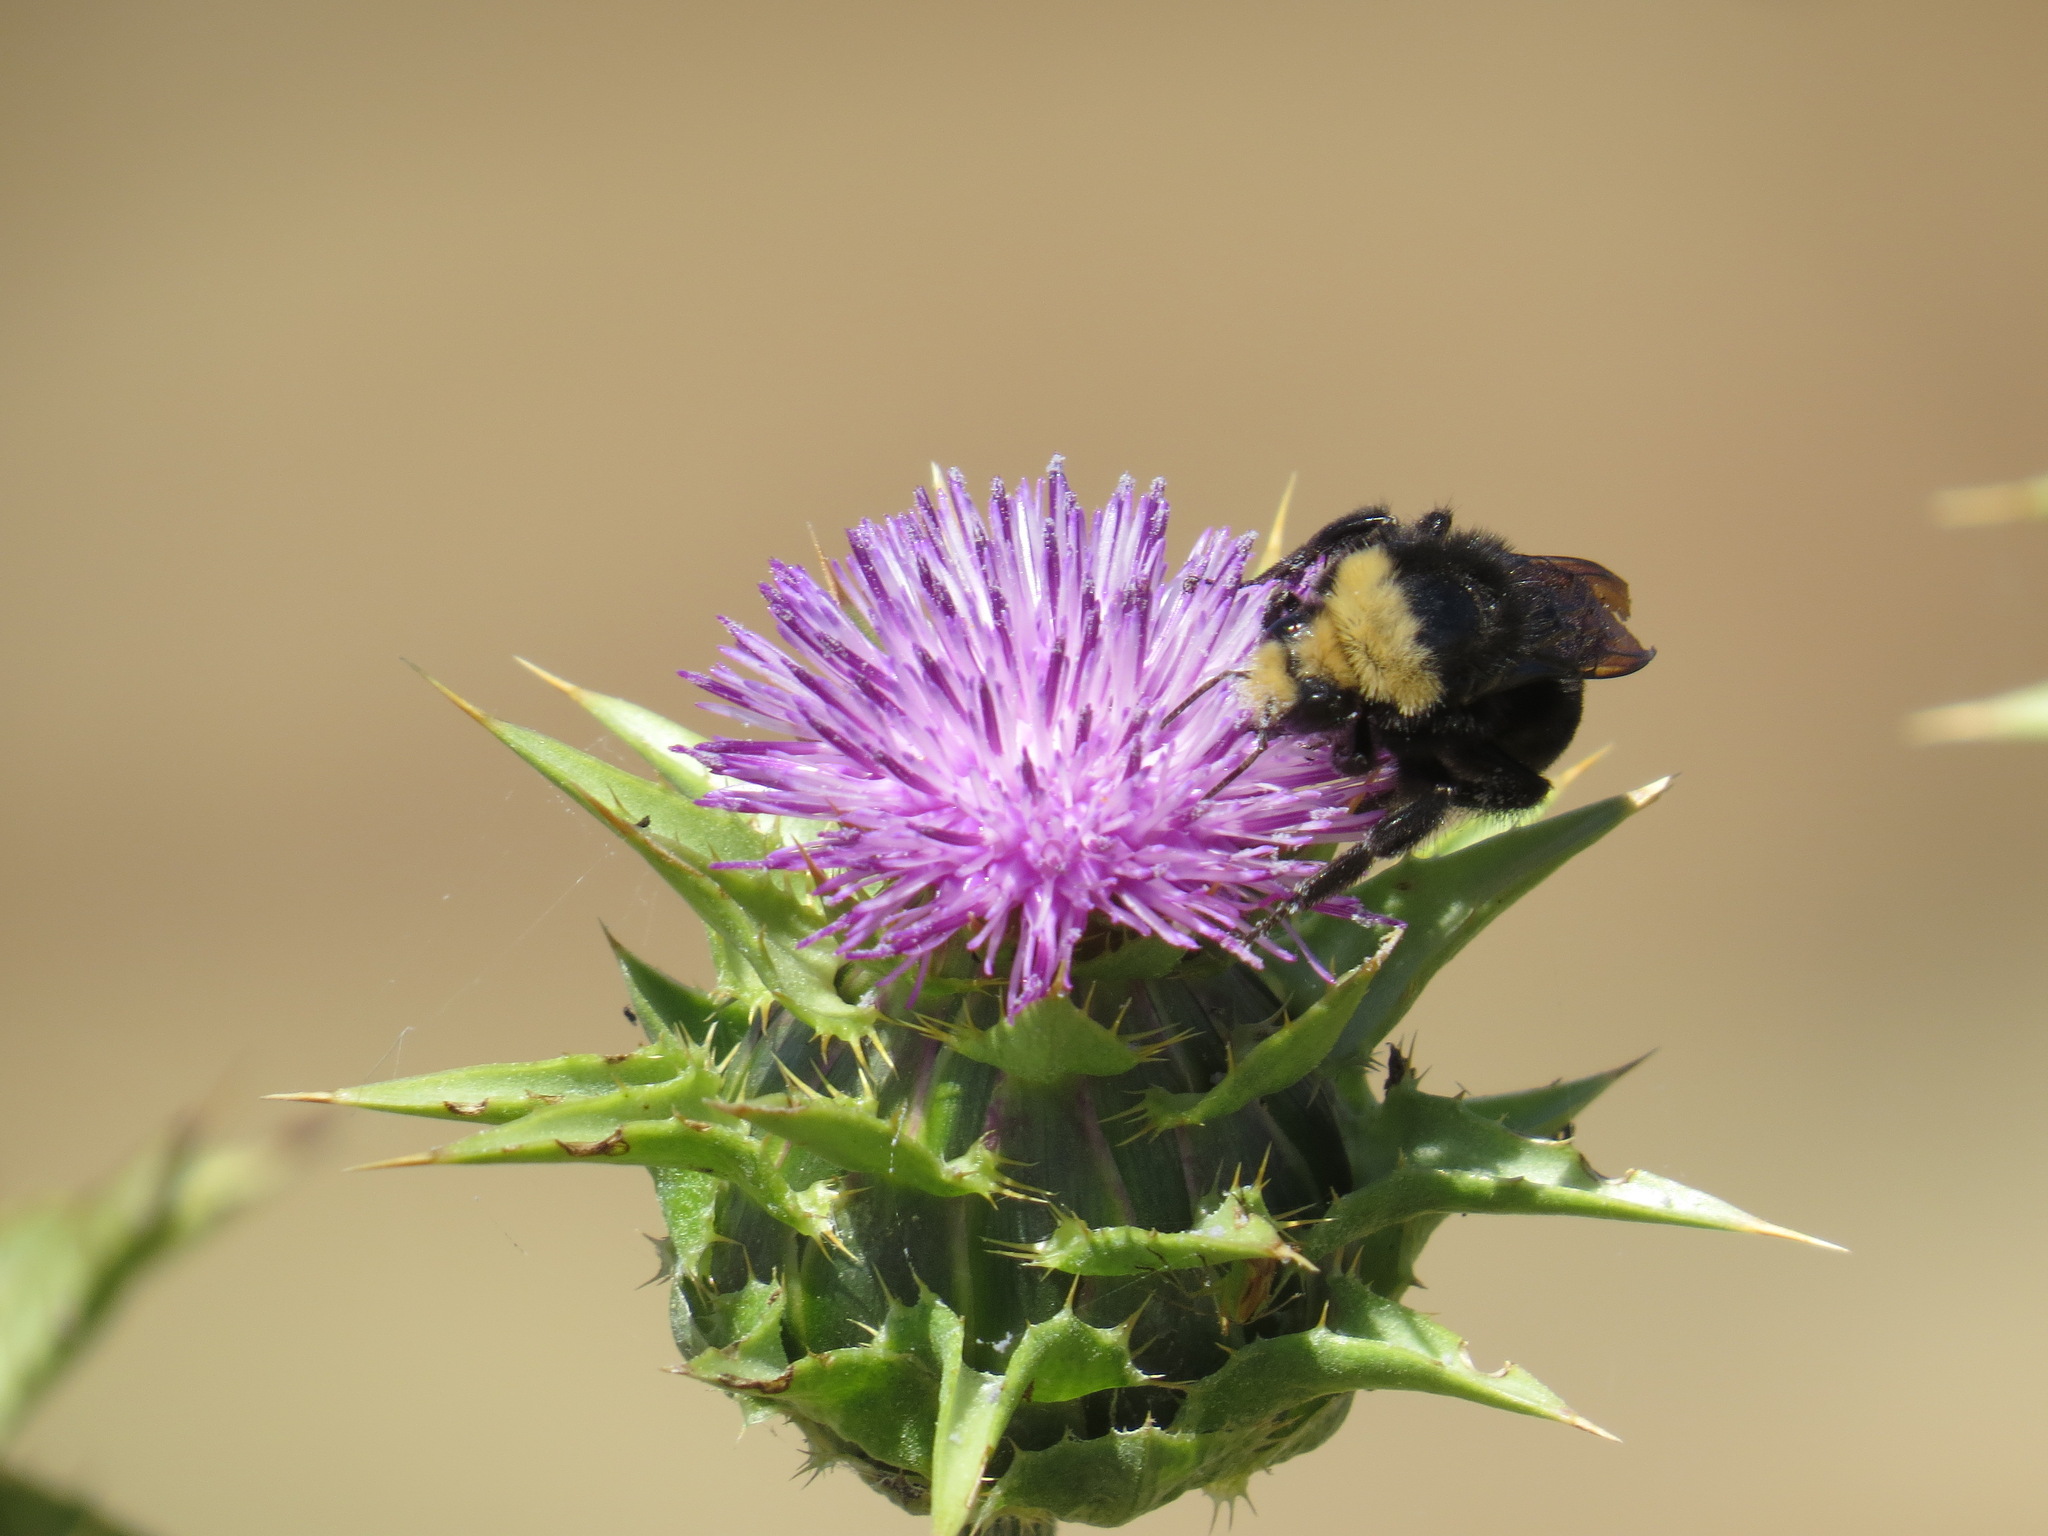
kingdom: Animalia
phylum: Arthropoda
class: Insecta
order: Hymenoptera
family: Apidae
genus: Bombus
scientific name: Bombus vosnesenskii
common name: Vosnesensky bumble bee
